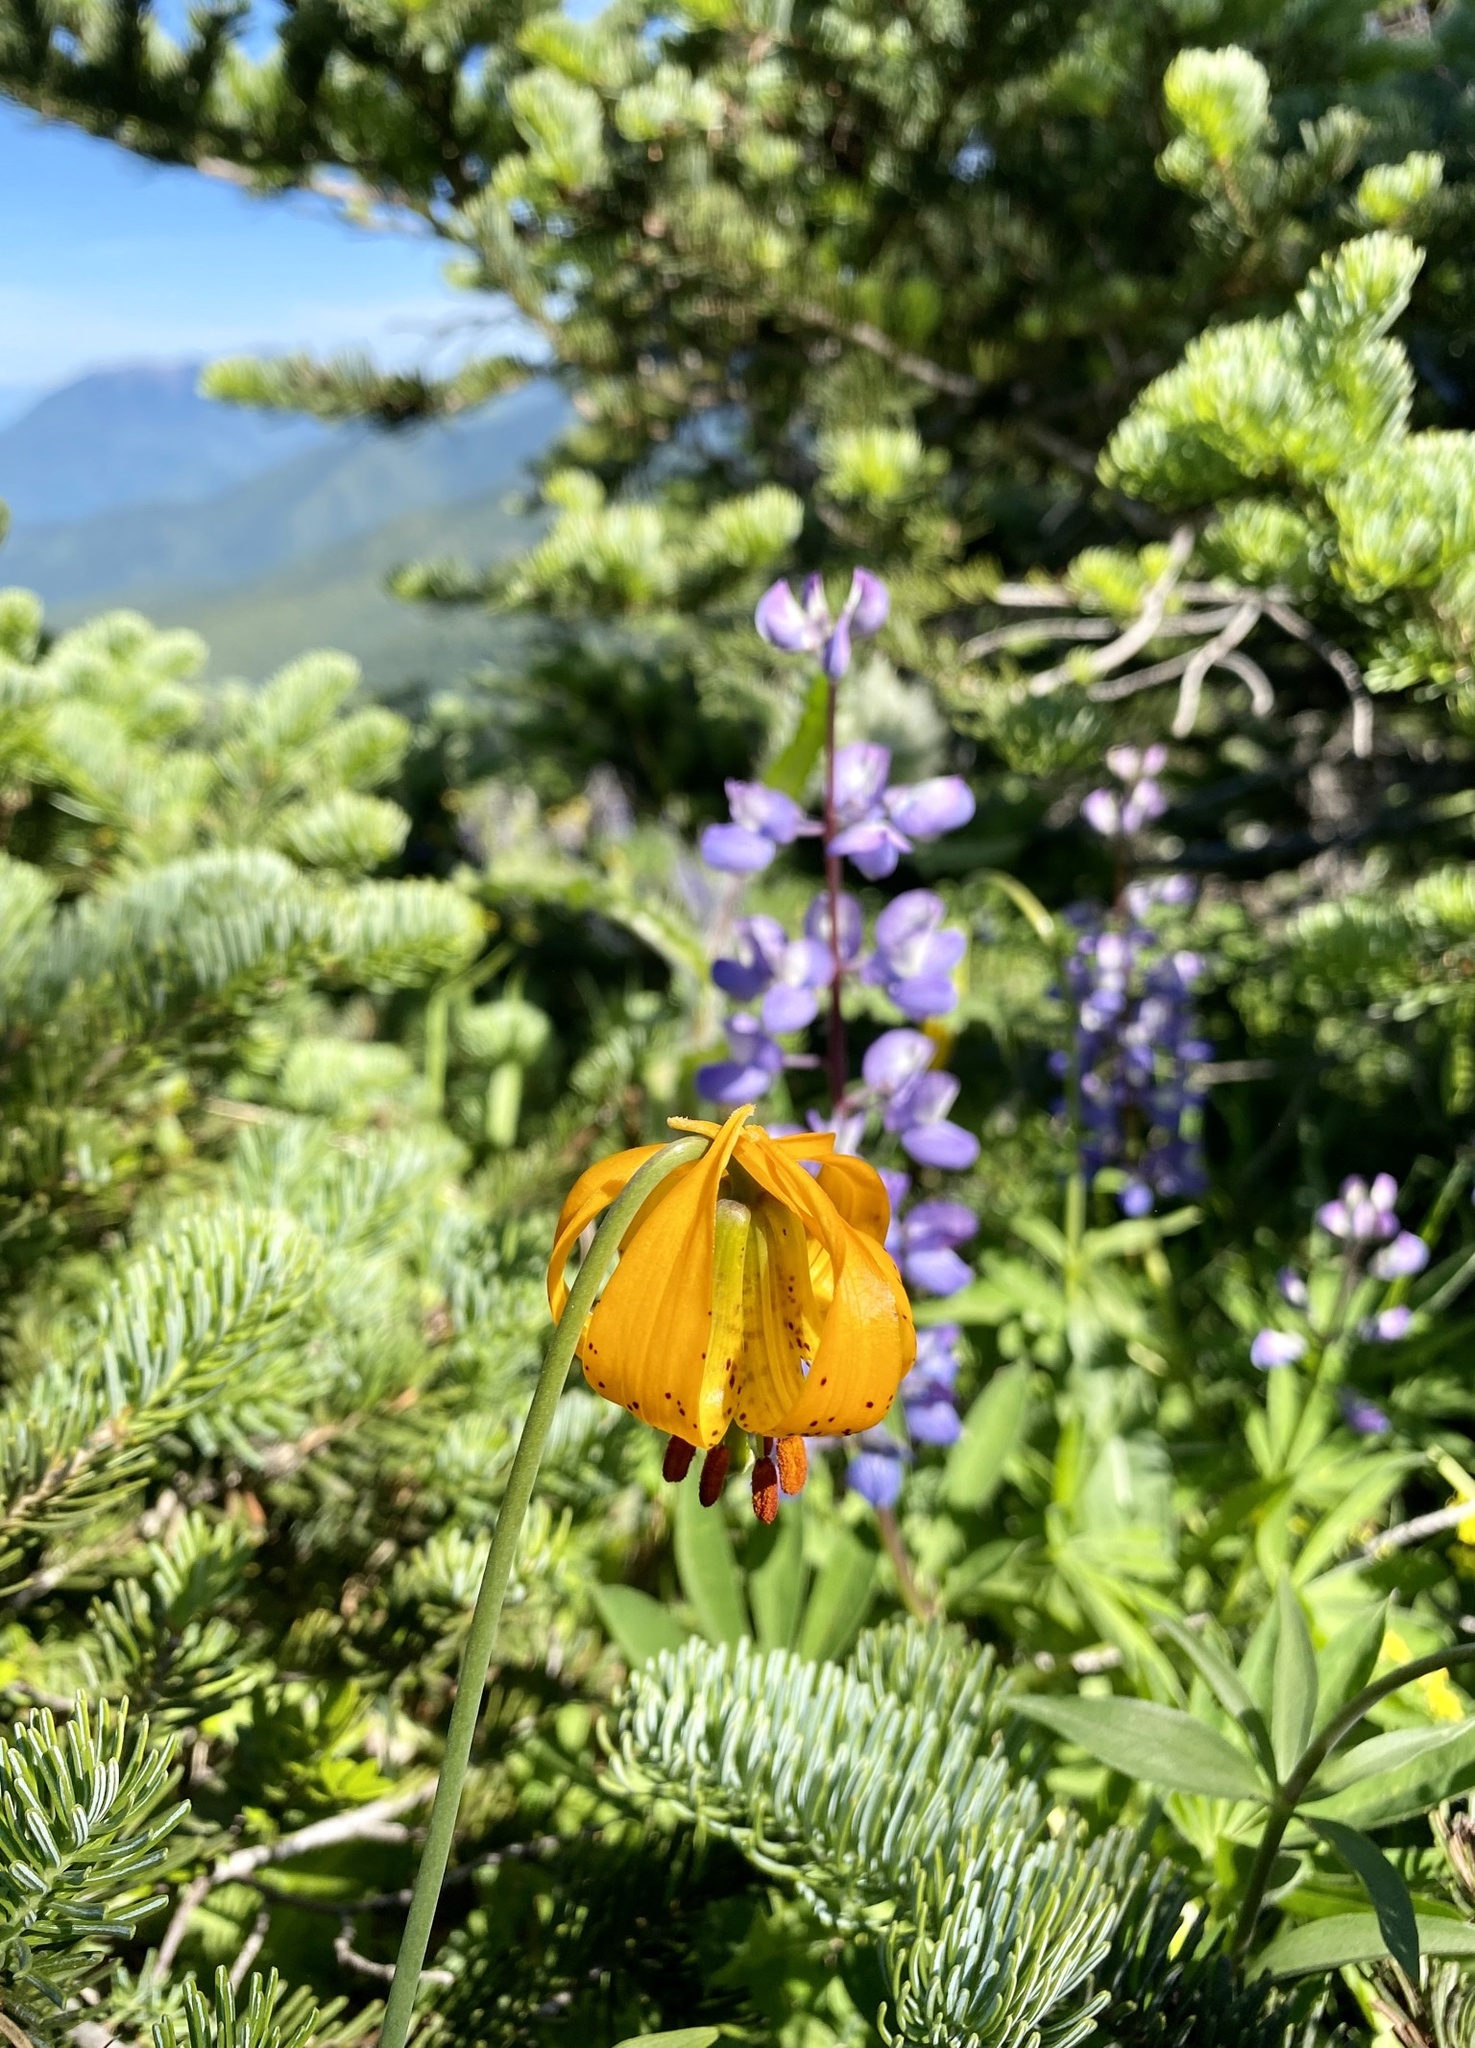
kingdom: Plantae
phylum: Tracheophyta
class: Liliopsida
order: Liliales
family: Liliaceae
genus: Lilium
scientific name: Lilium columbianum
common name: Columbia lily
